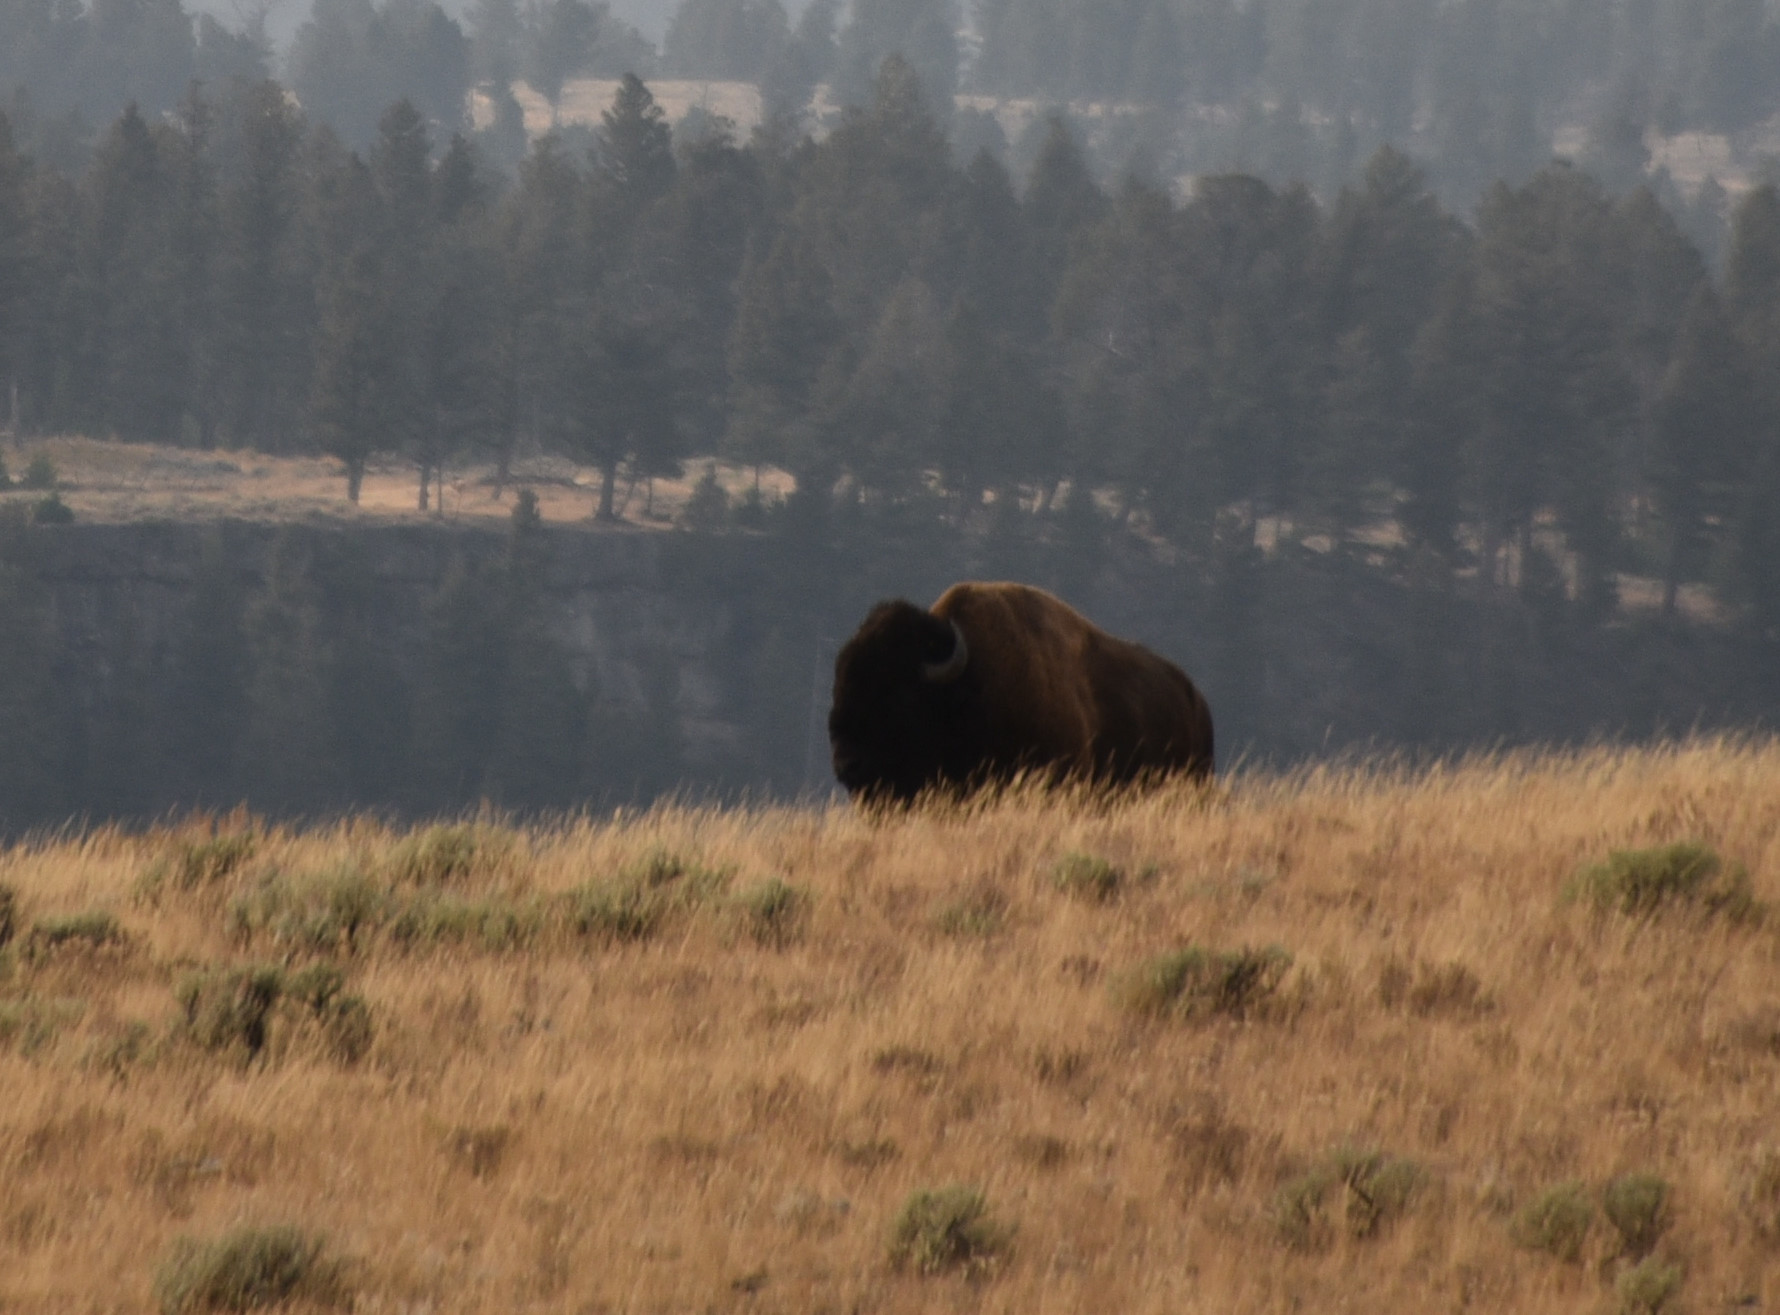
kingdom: Animalia
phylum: Chordata
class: Mammalia
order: Artiodactyla
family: Bovidae
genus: Bison
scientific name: Bison bison
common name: American bison
